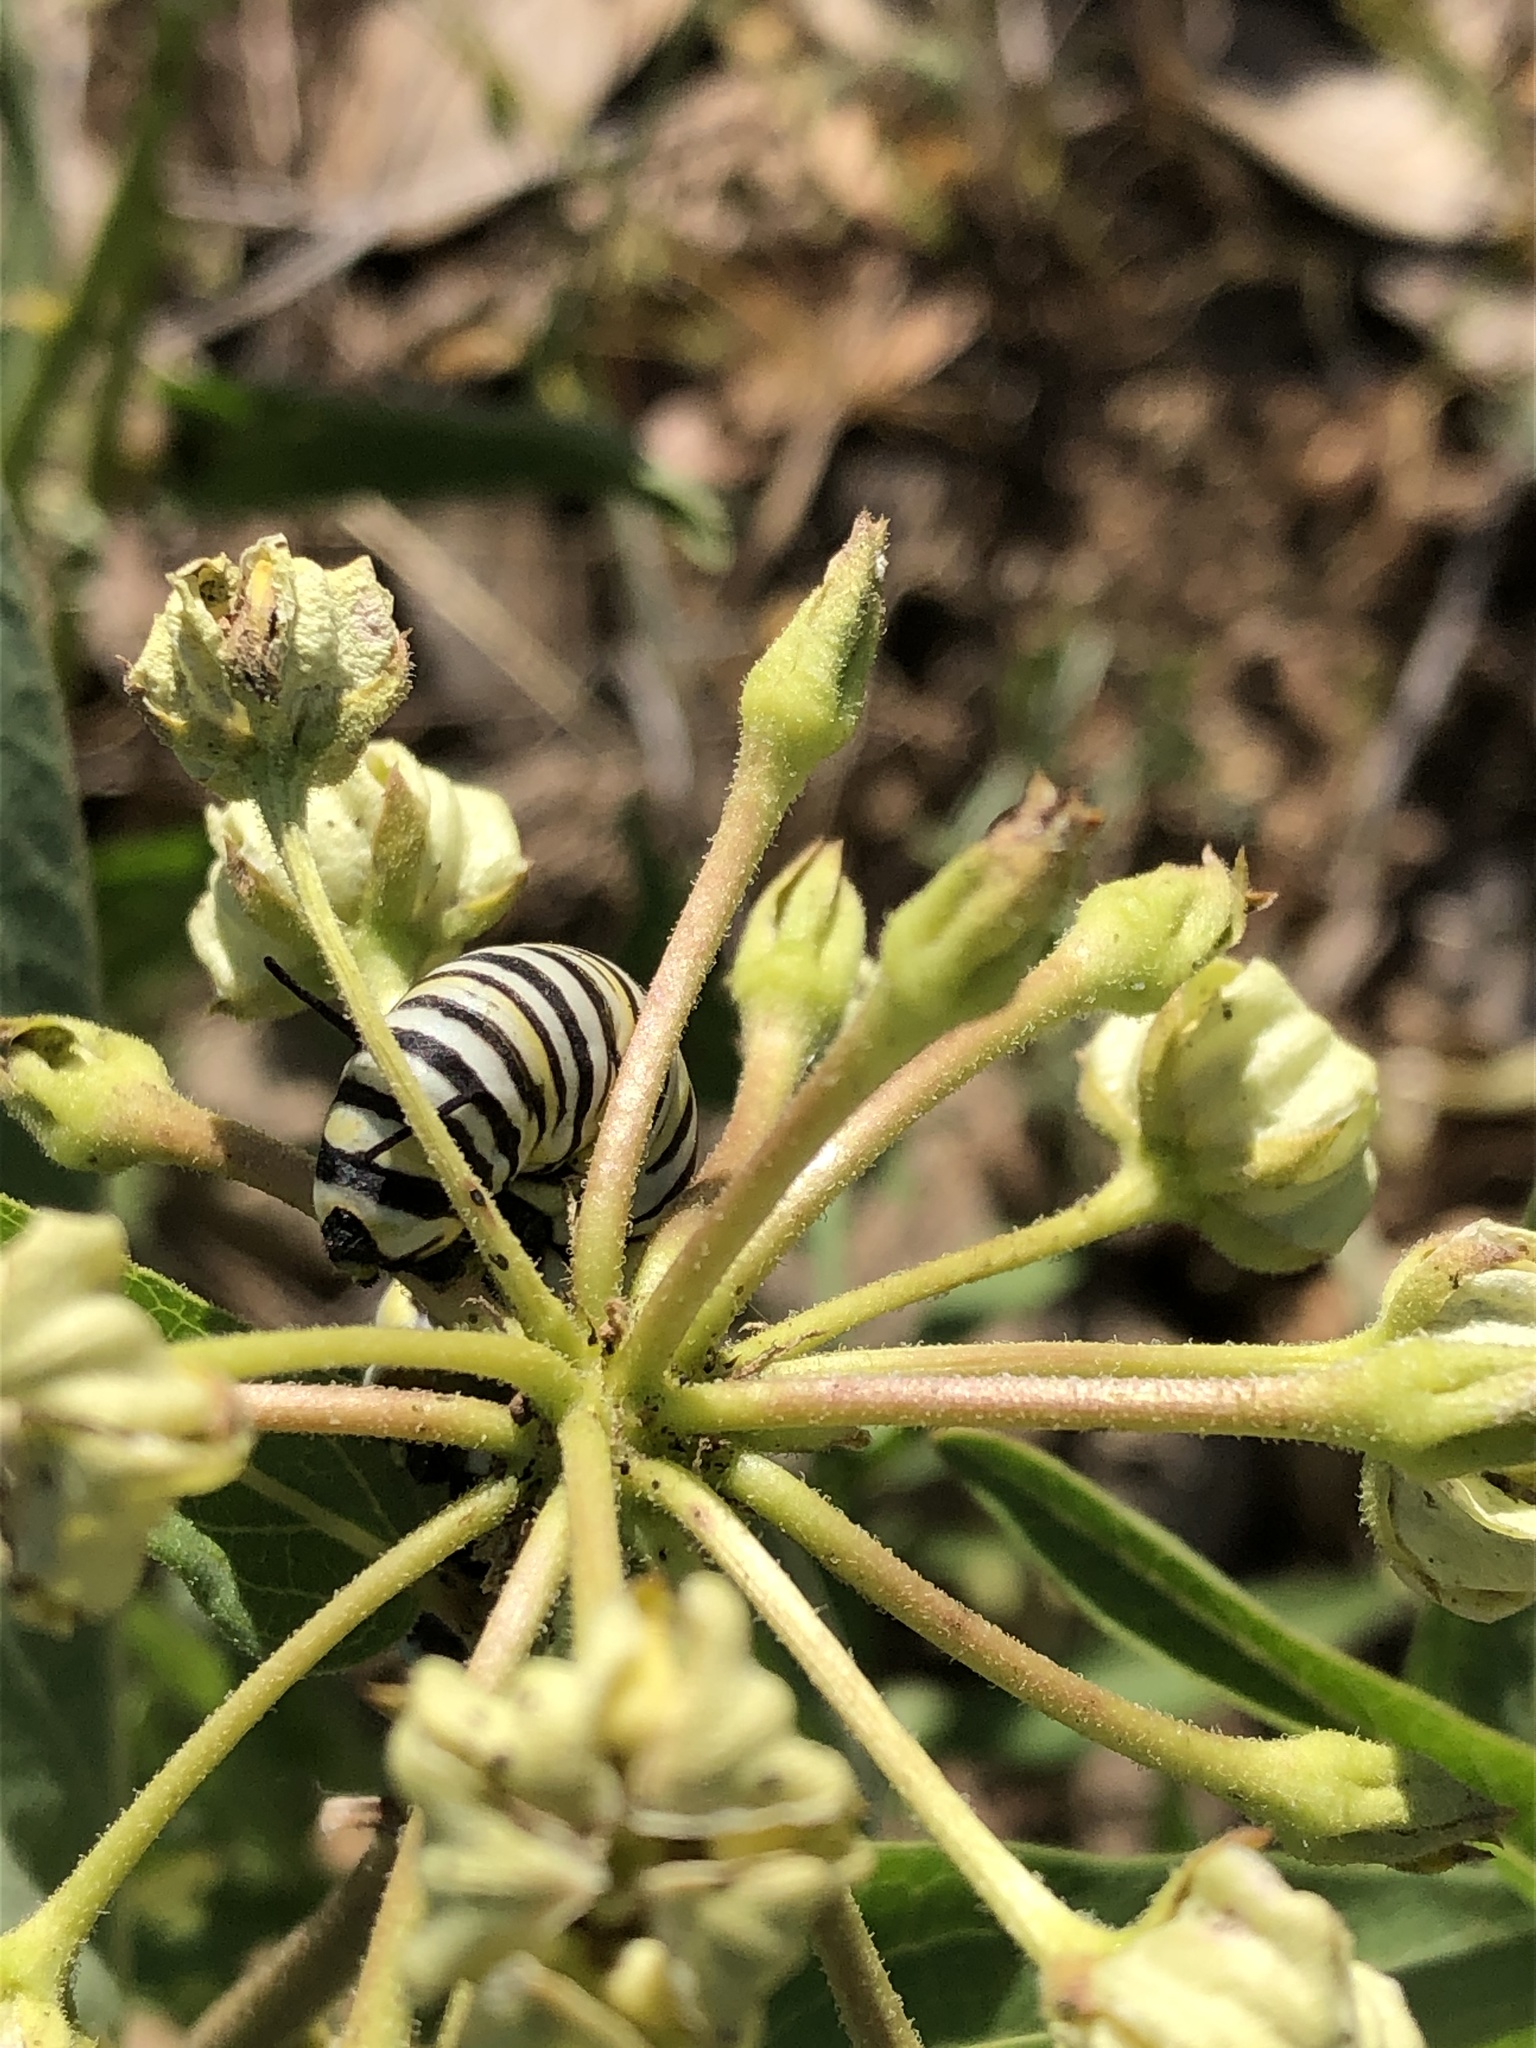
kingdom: Animalia
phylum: Arthropoda
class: Insecta
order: Lepidoptera
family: Nymphalidae
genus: Danaus
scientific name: Danaus plexippus
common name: Monarch
